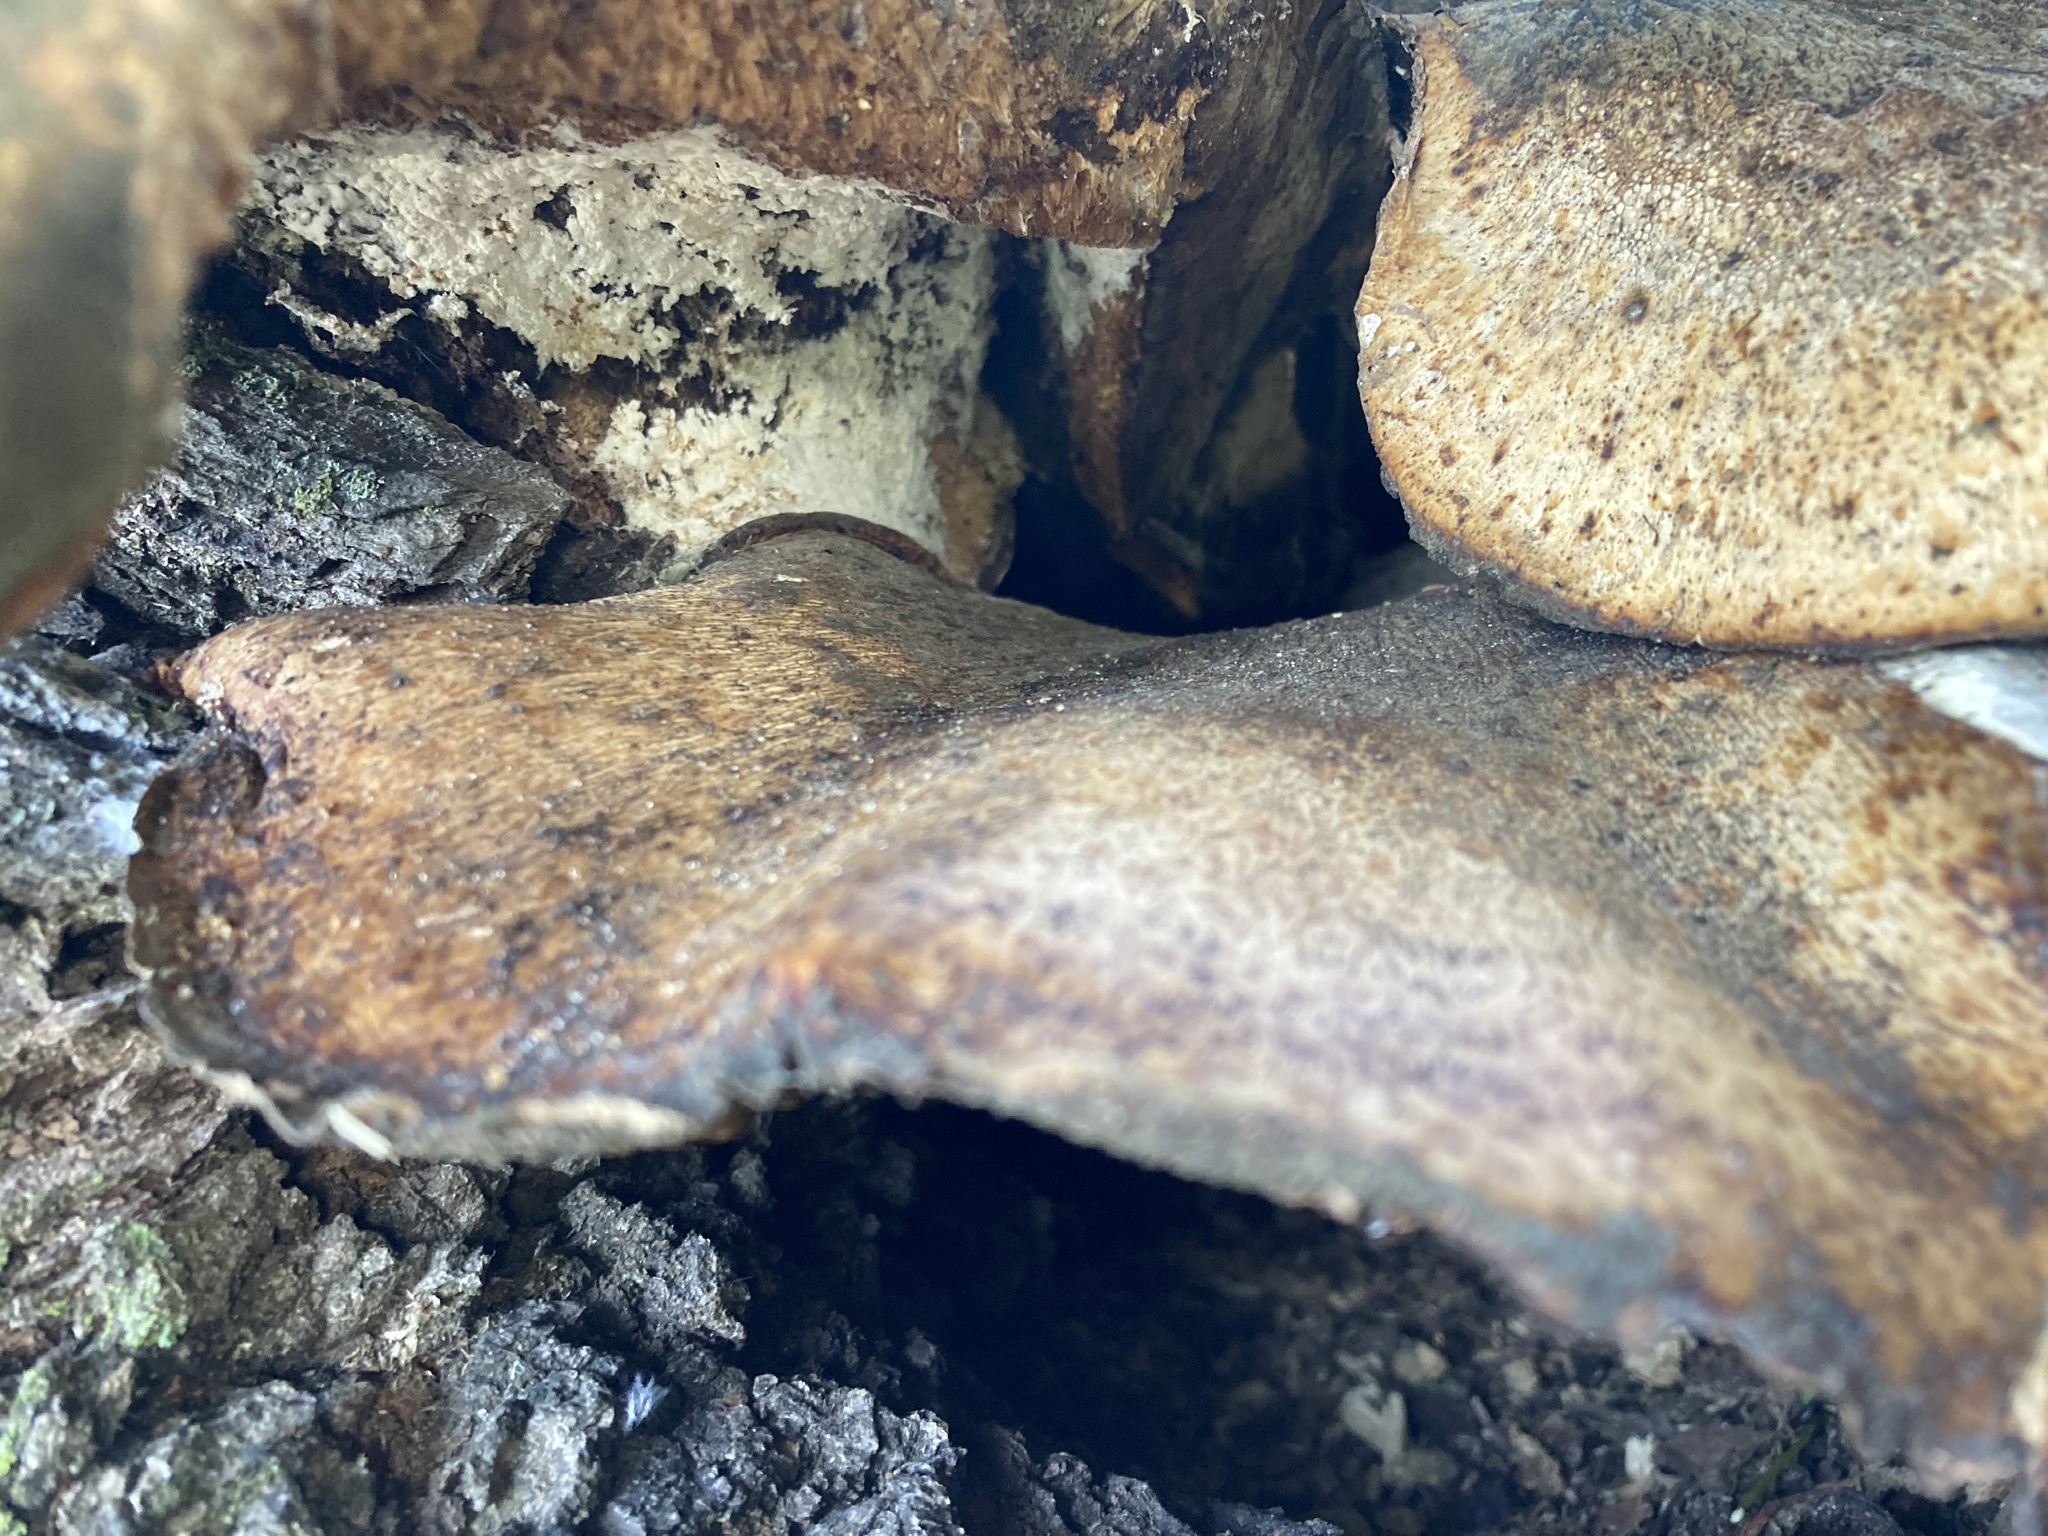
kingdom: Fungi
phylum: Basidiomycota
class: Agaricomycetes
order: Polyporales
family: Polyporaceae
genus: Cerioporus
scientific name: Cerioporus squamosus
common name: Dryad's saddle
